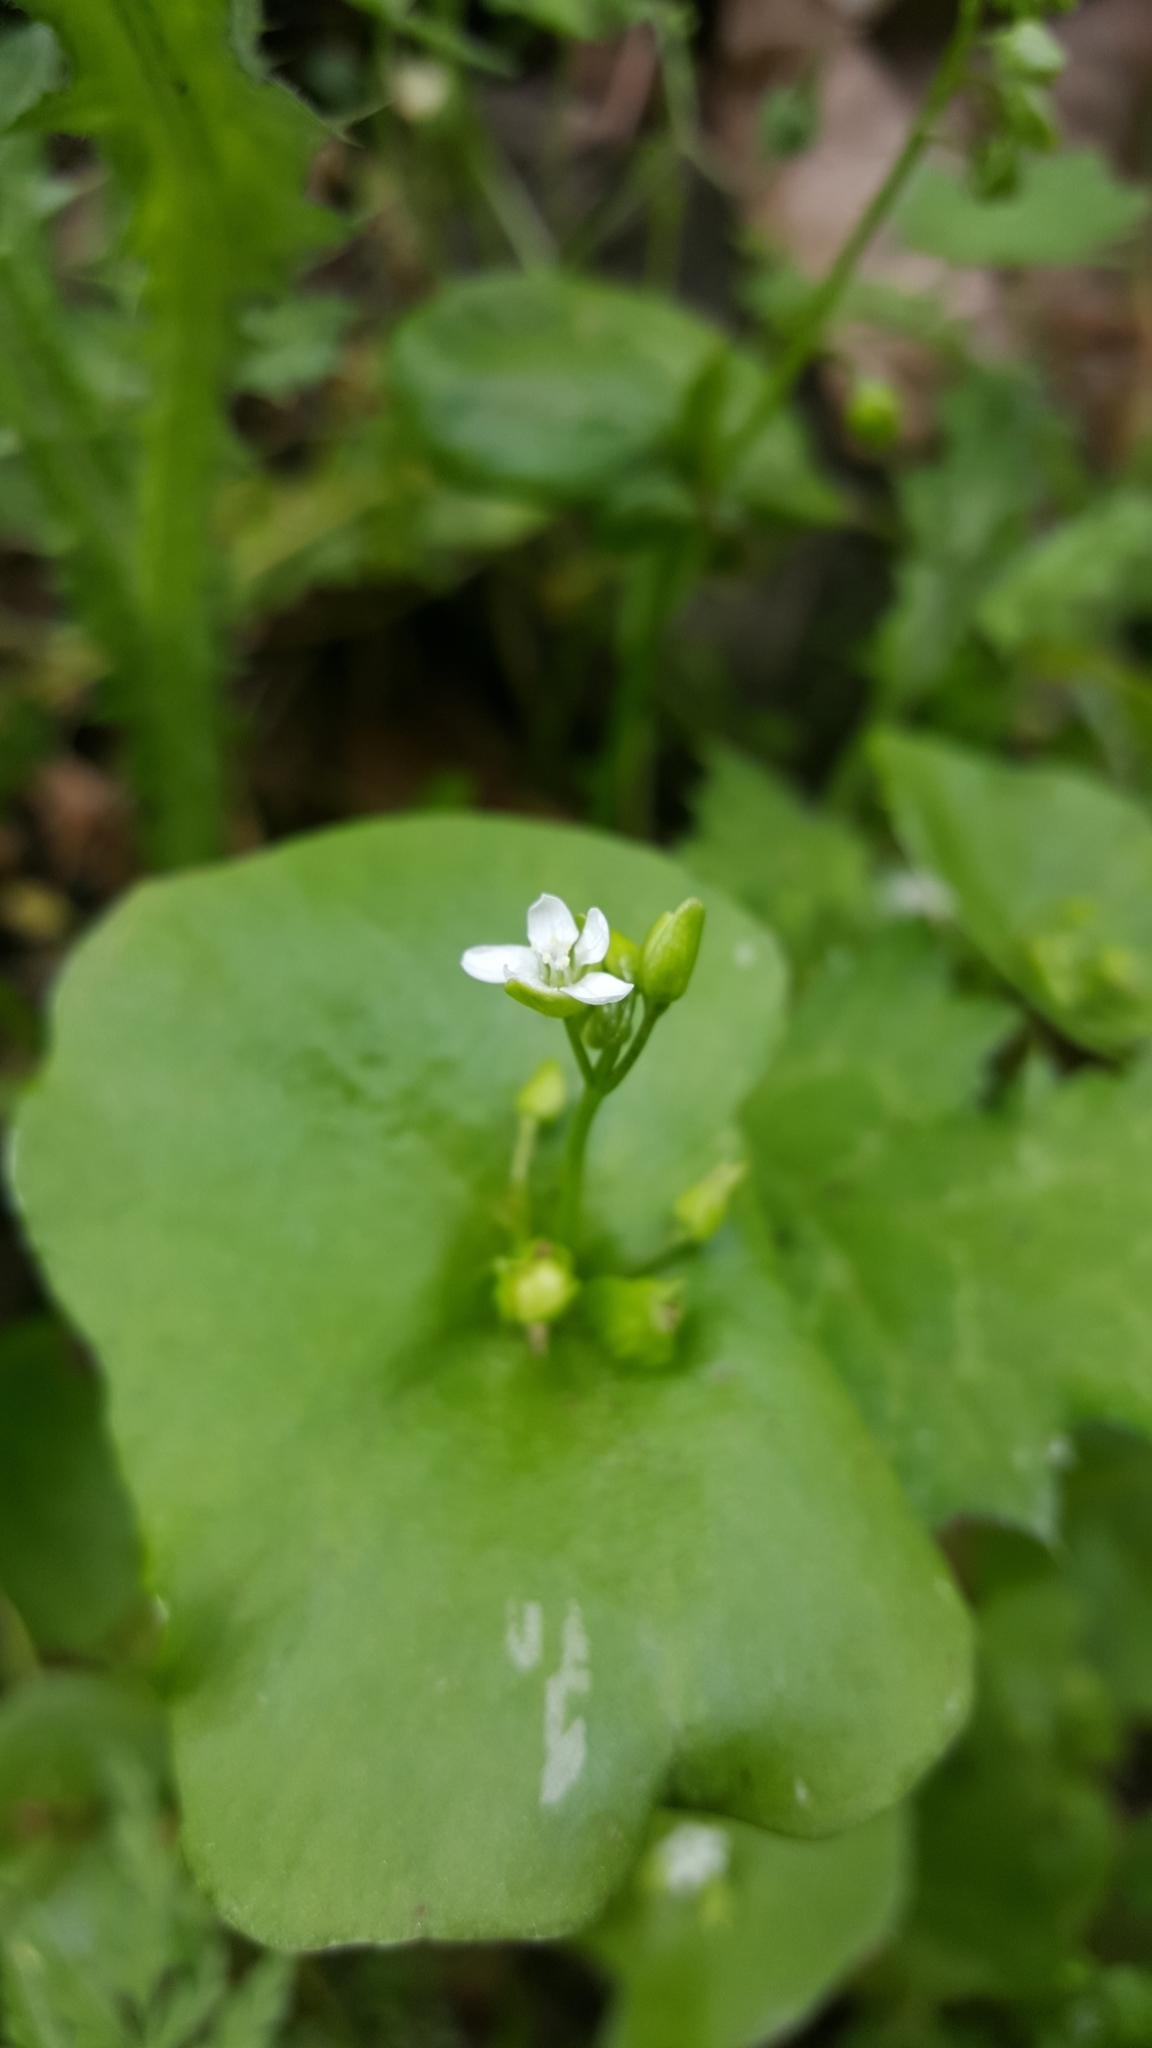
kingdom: Plantae
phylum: Tracheophyta
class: Magnoliopsida
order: Caryophyllales
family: Montiaceae
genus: Claytonia
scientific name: Claytonia perfoliata
